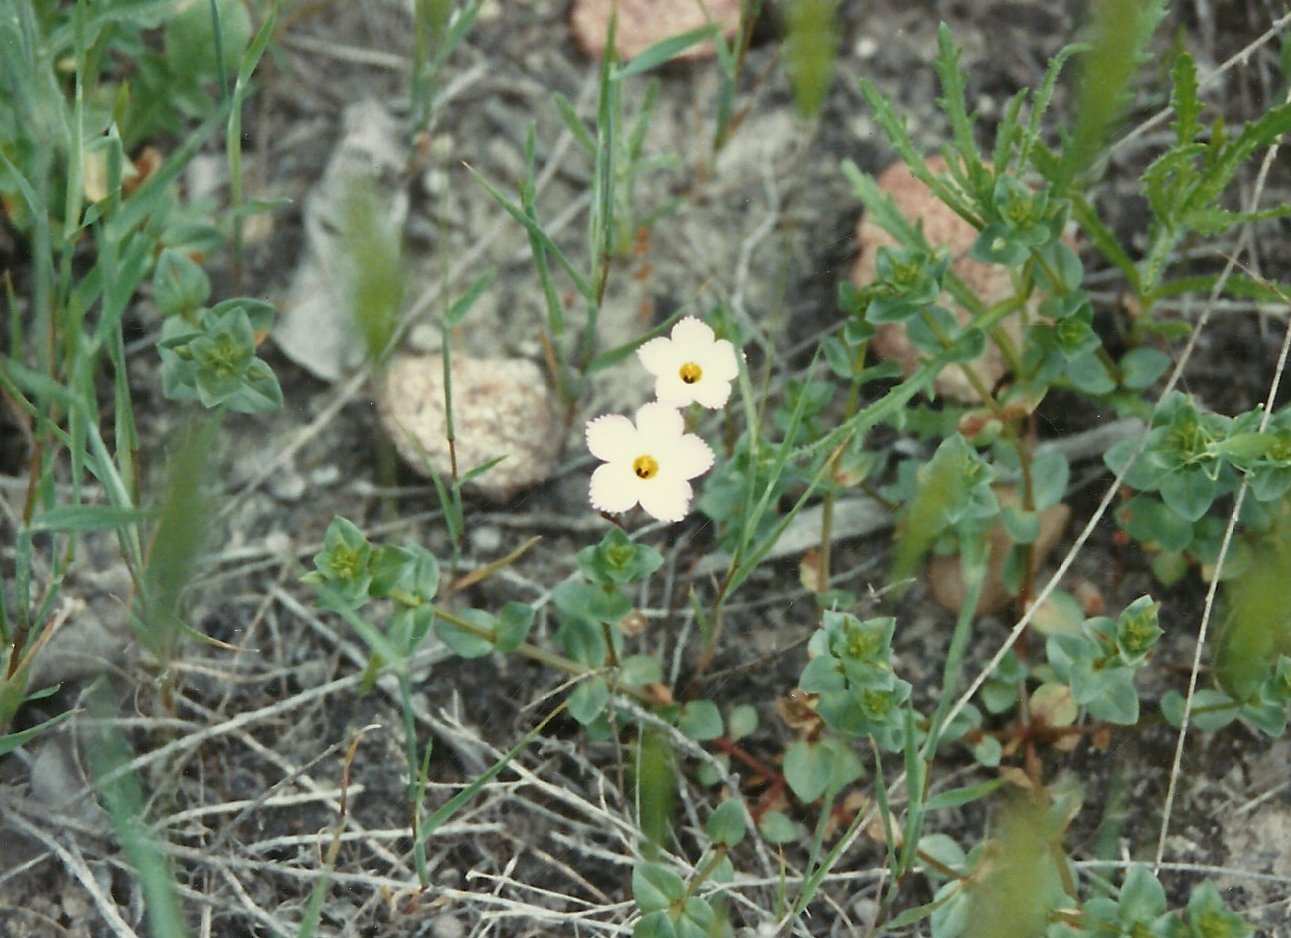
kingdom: Plantae
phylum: Tracheophyta
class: Magnoliopsida
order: Ericales
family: Polemoniaceae
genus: Linanthus
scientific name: Linanthus dianthiflorus
